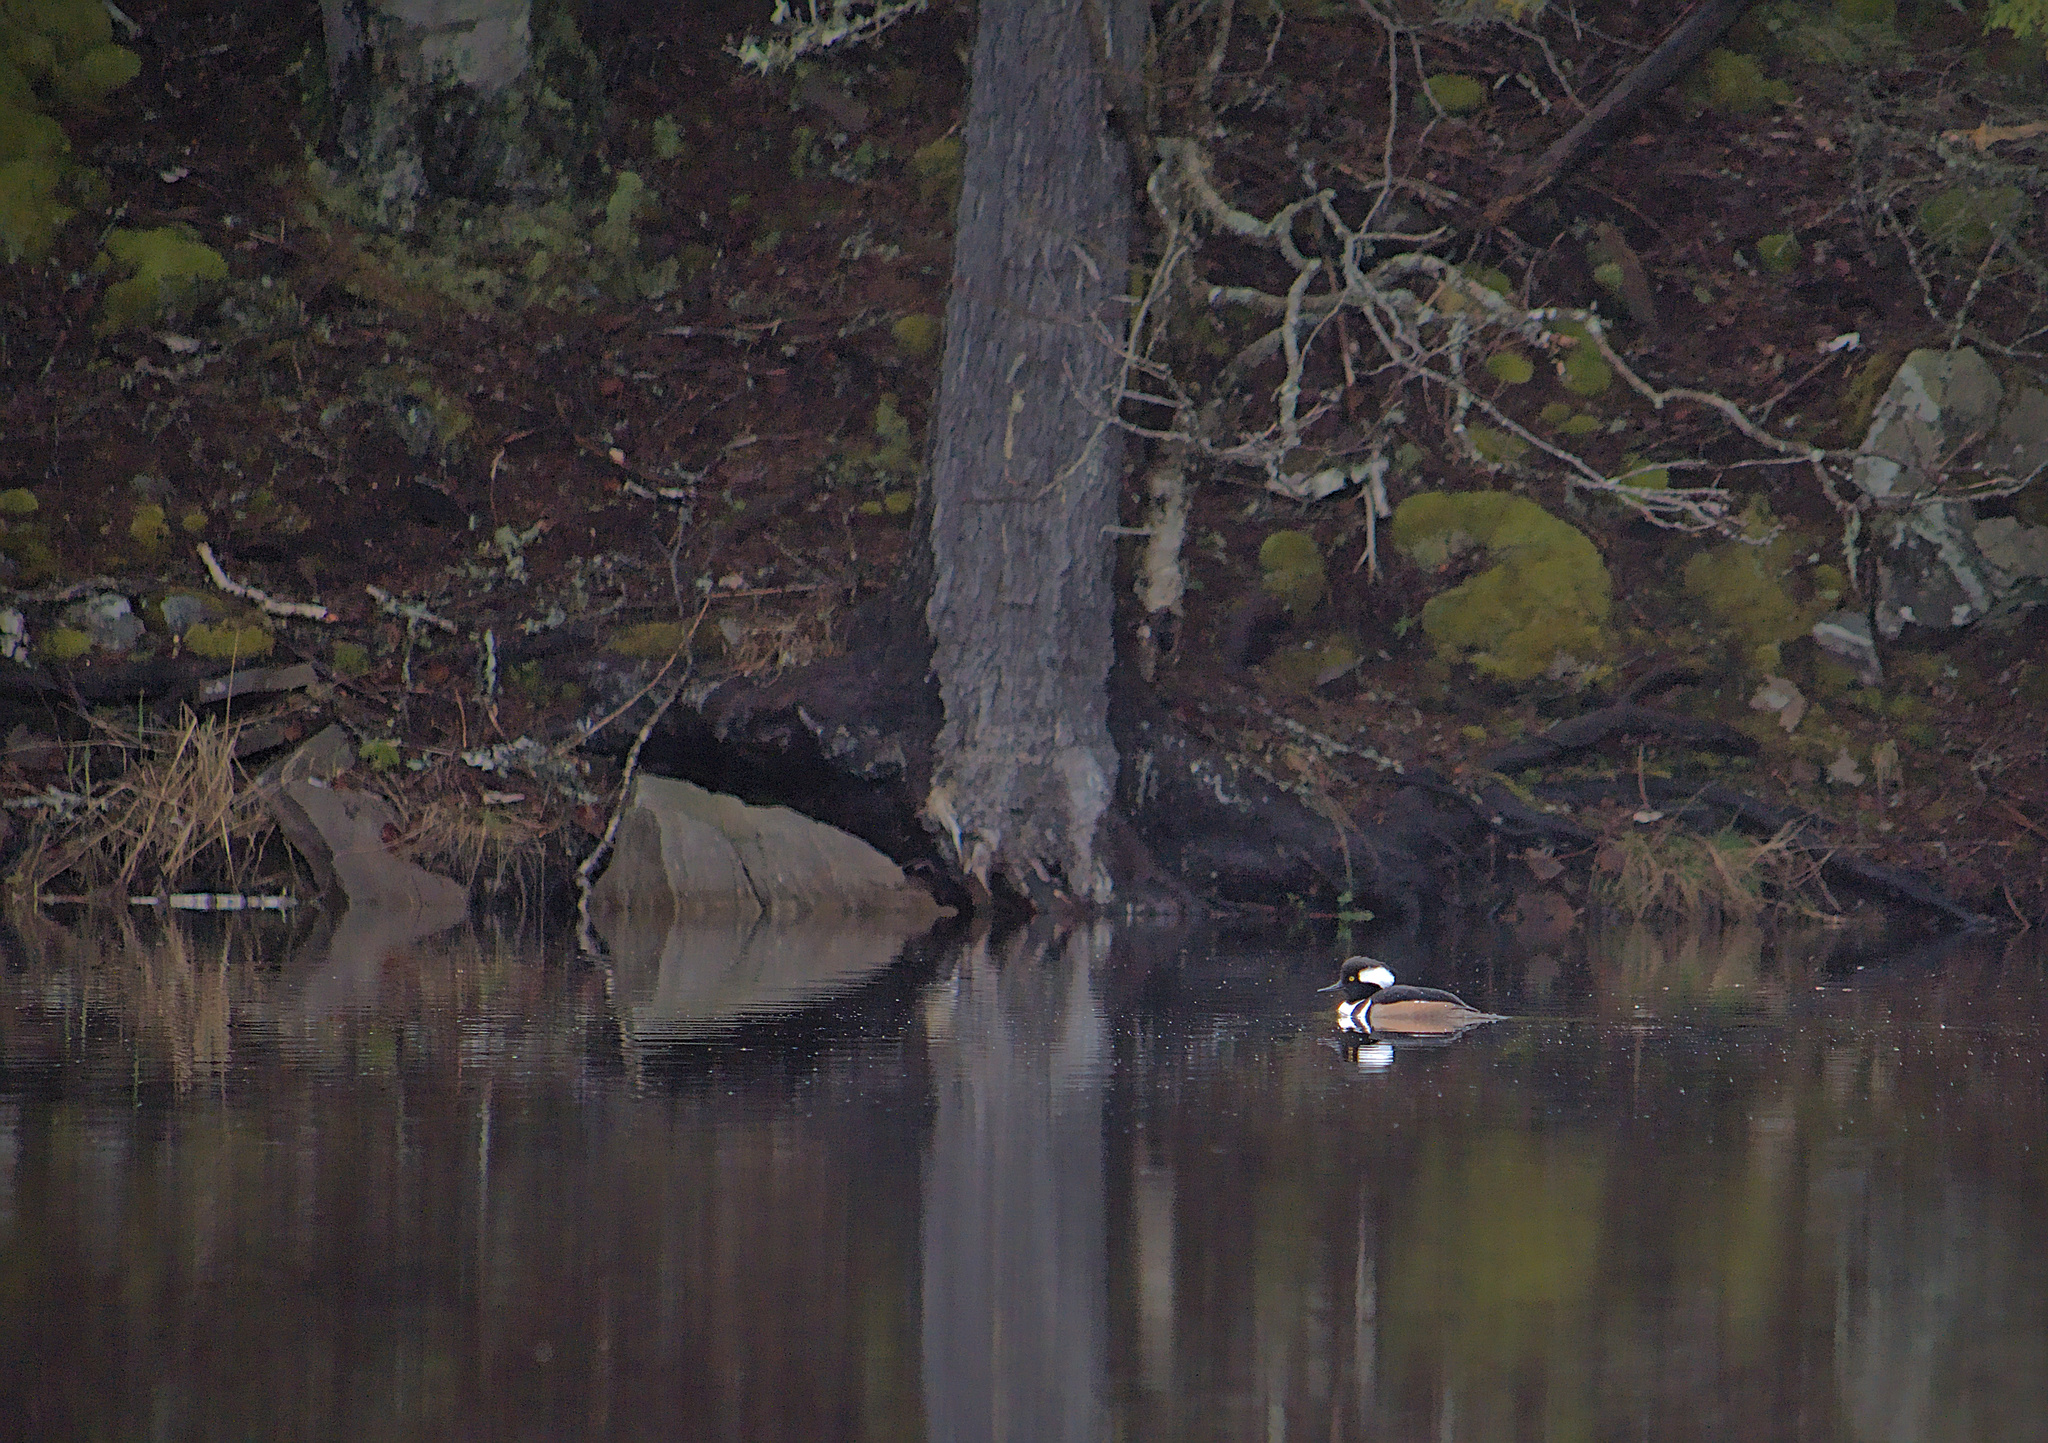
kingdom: Animalia
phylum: Chordata
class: Aves
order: Anseriformes
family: Anatidae
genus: Lophodytes
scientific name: Lophodytes cucullatus
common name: Hooded merganser
